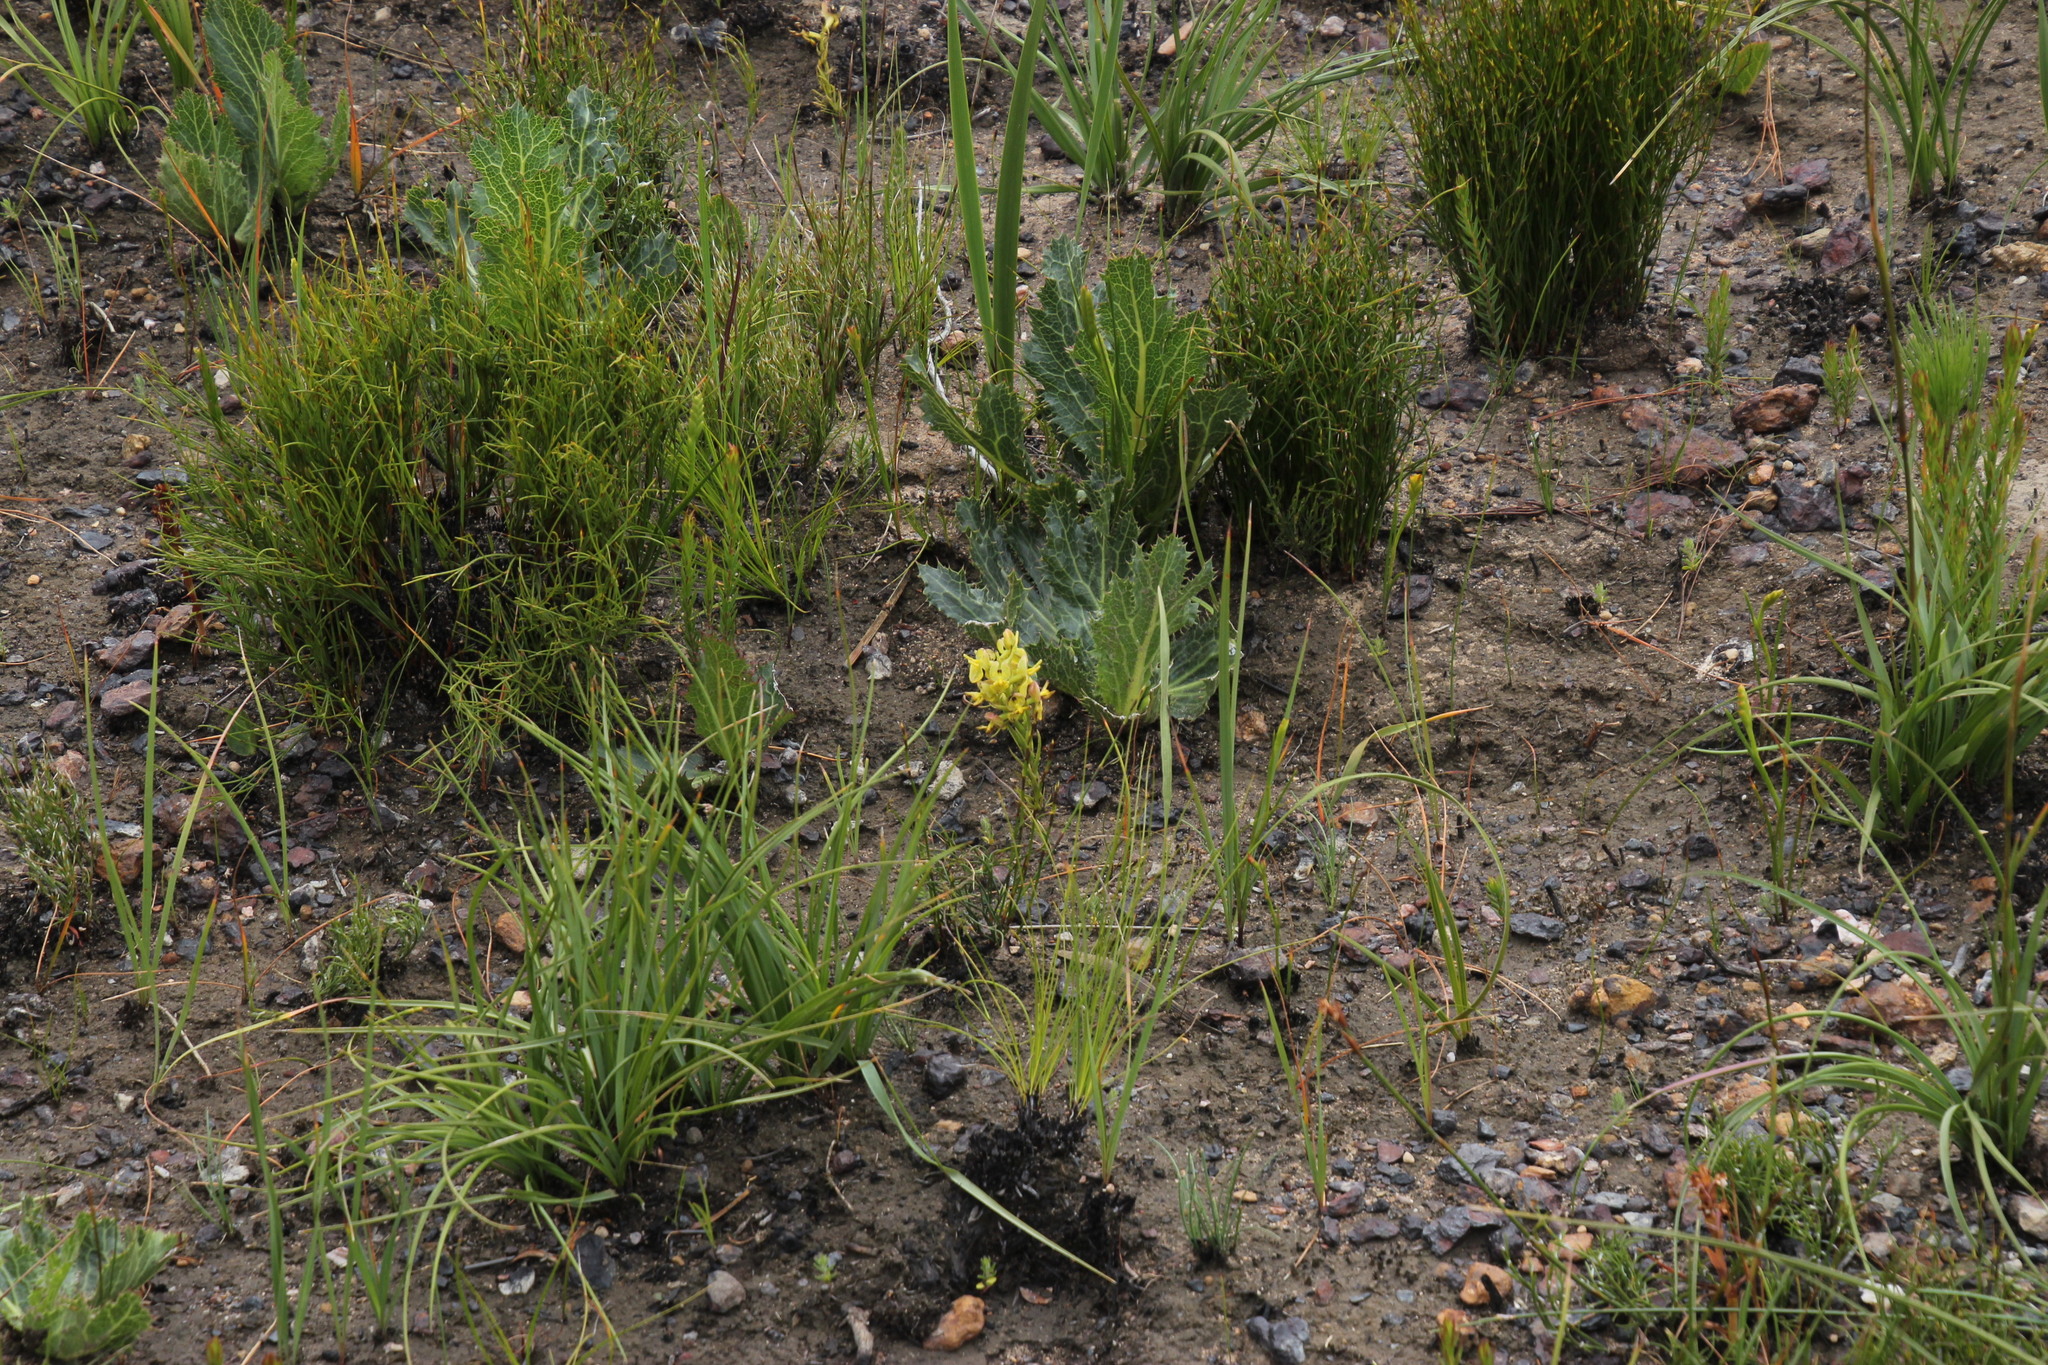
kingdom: Plantae
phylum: Tracheophyta
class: Liliopsida
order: Asparagales
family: Orchidaceae
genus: Ceratandra
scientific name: Ceratandra atrata
